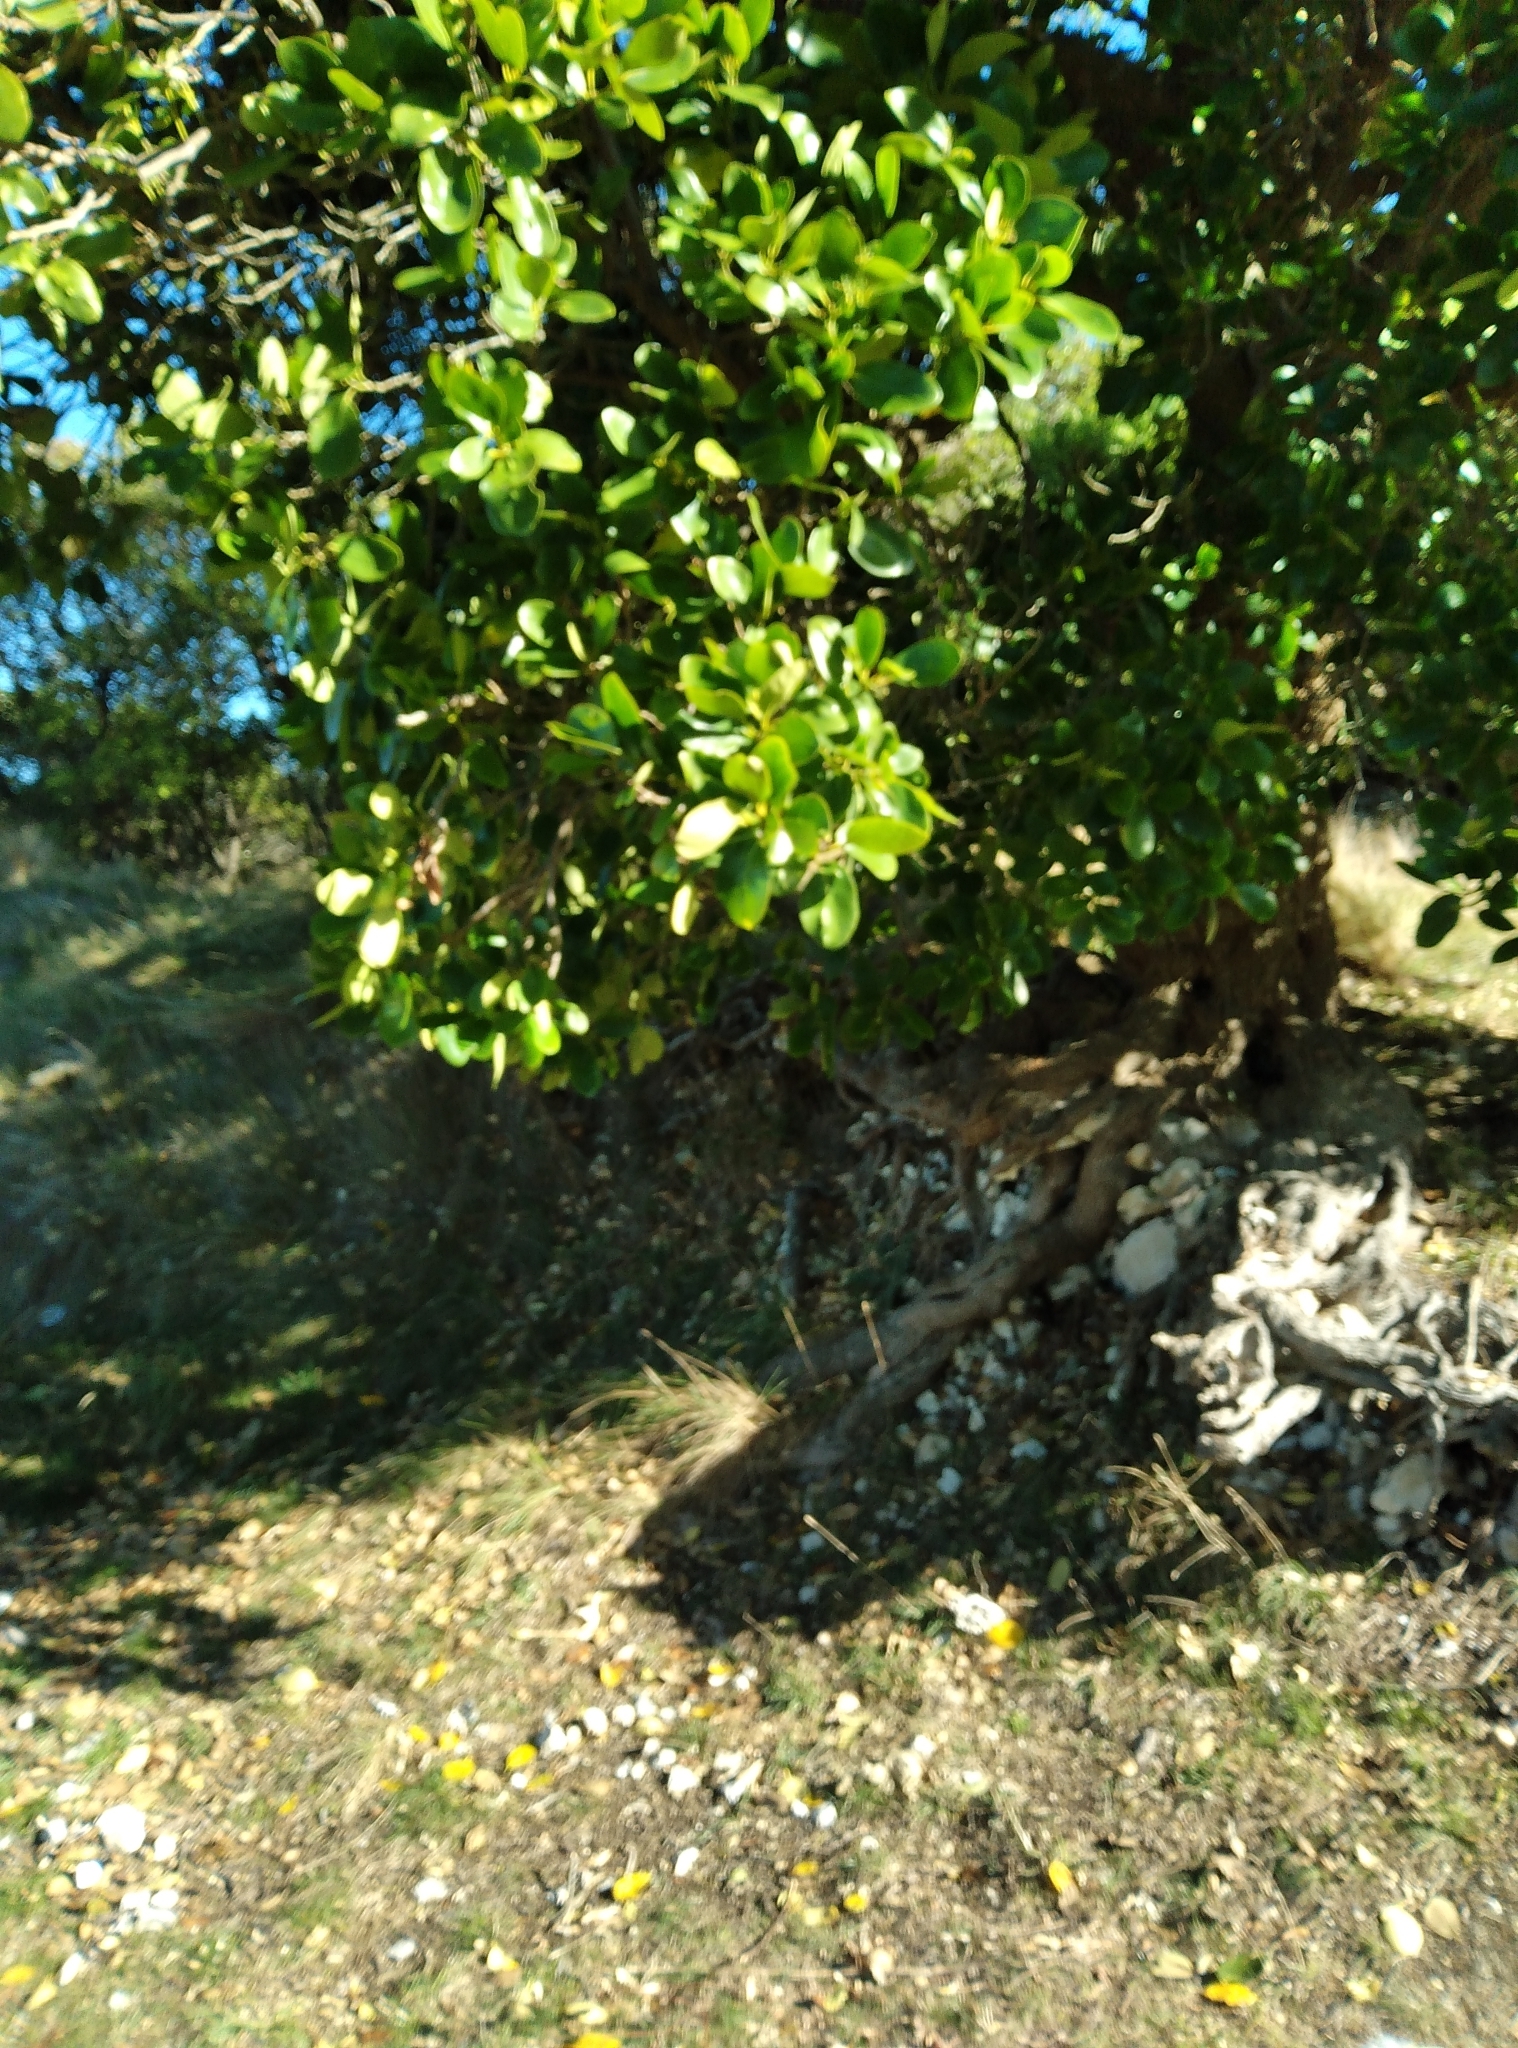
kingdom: Plantae
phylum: Tracheophyta
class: Magnoliopsida
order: Apiales
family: Griseliniaceae
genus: Griselinia
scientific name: Griselinia lucida
